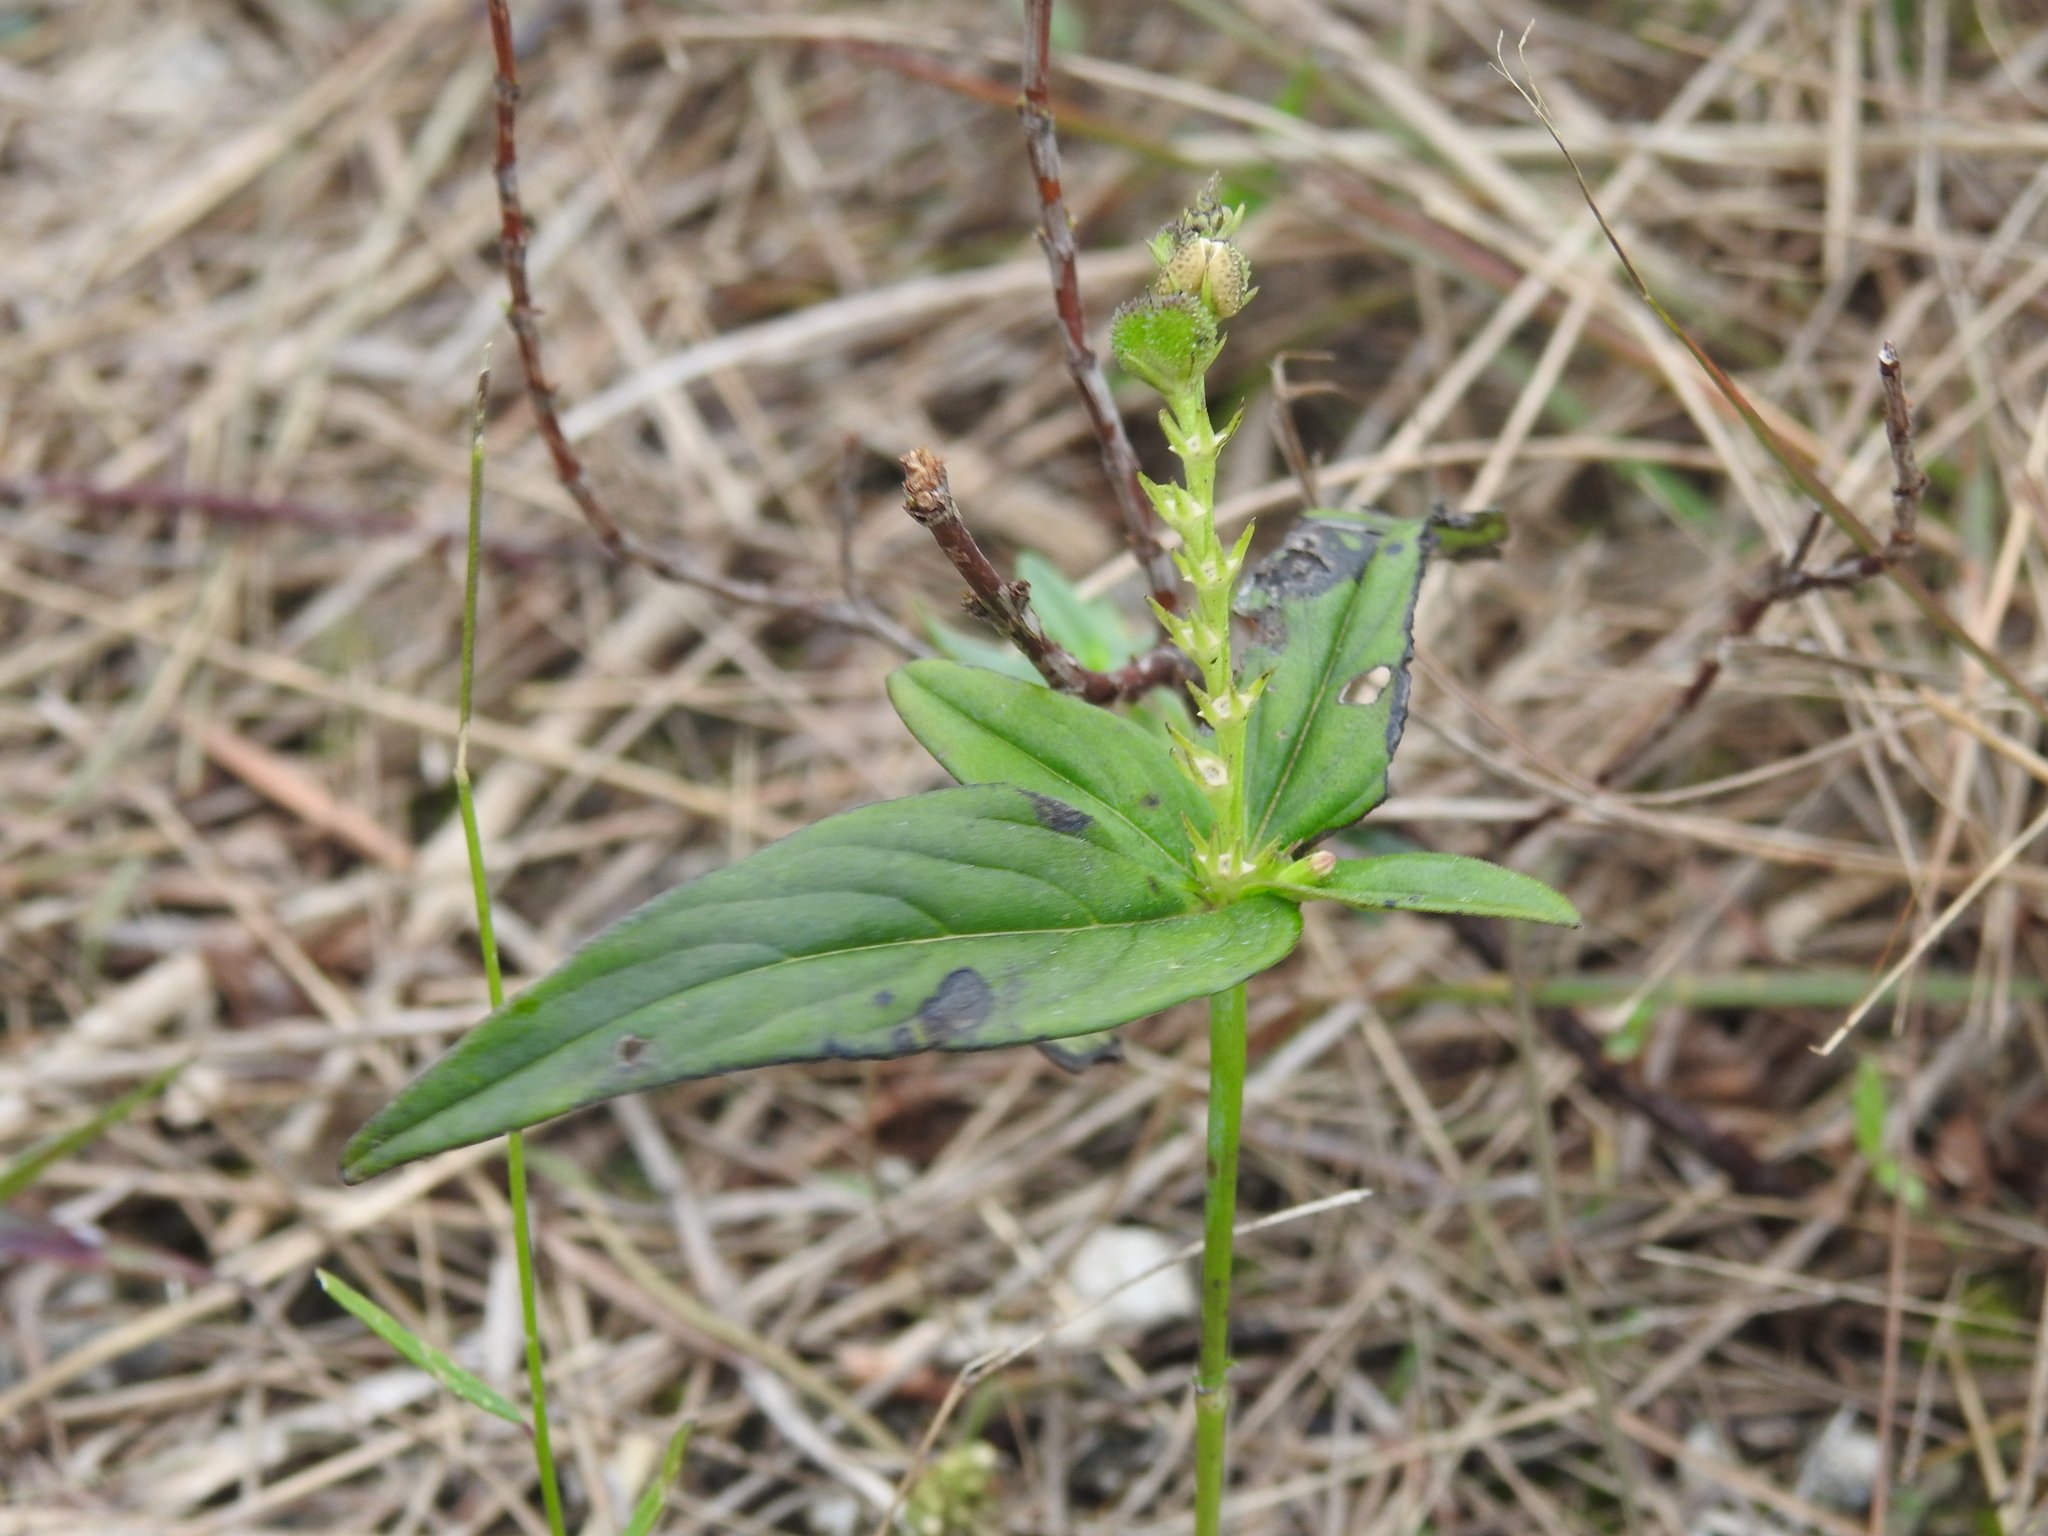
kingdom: Plantae
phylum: Tracheophyta
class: Magnoliopsida
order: Gentianales
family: Loganiaceae
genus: Spigelia
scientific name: Spigelia anthelmia
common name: West indian-pink
